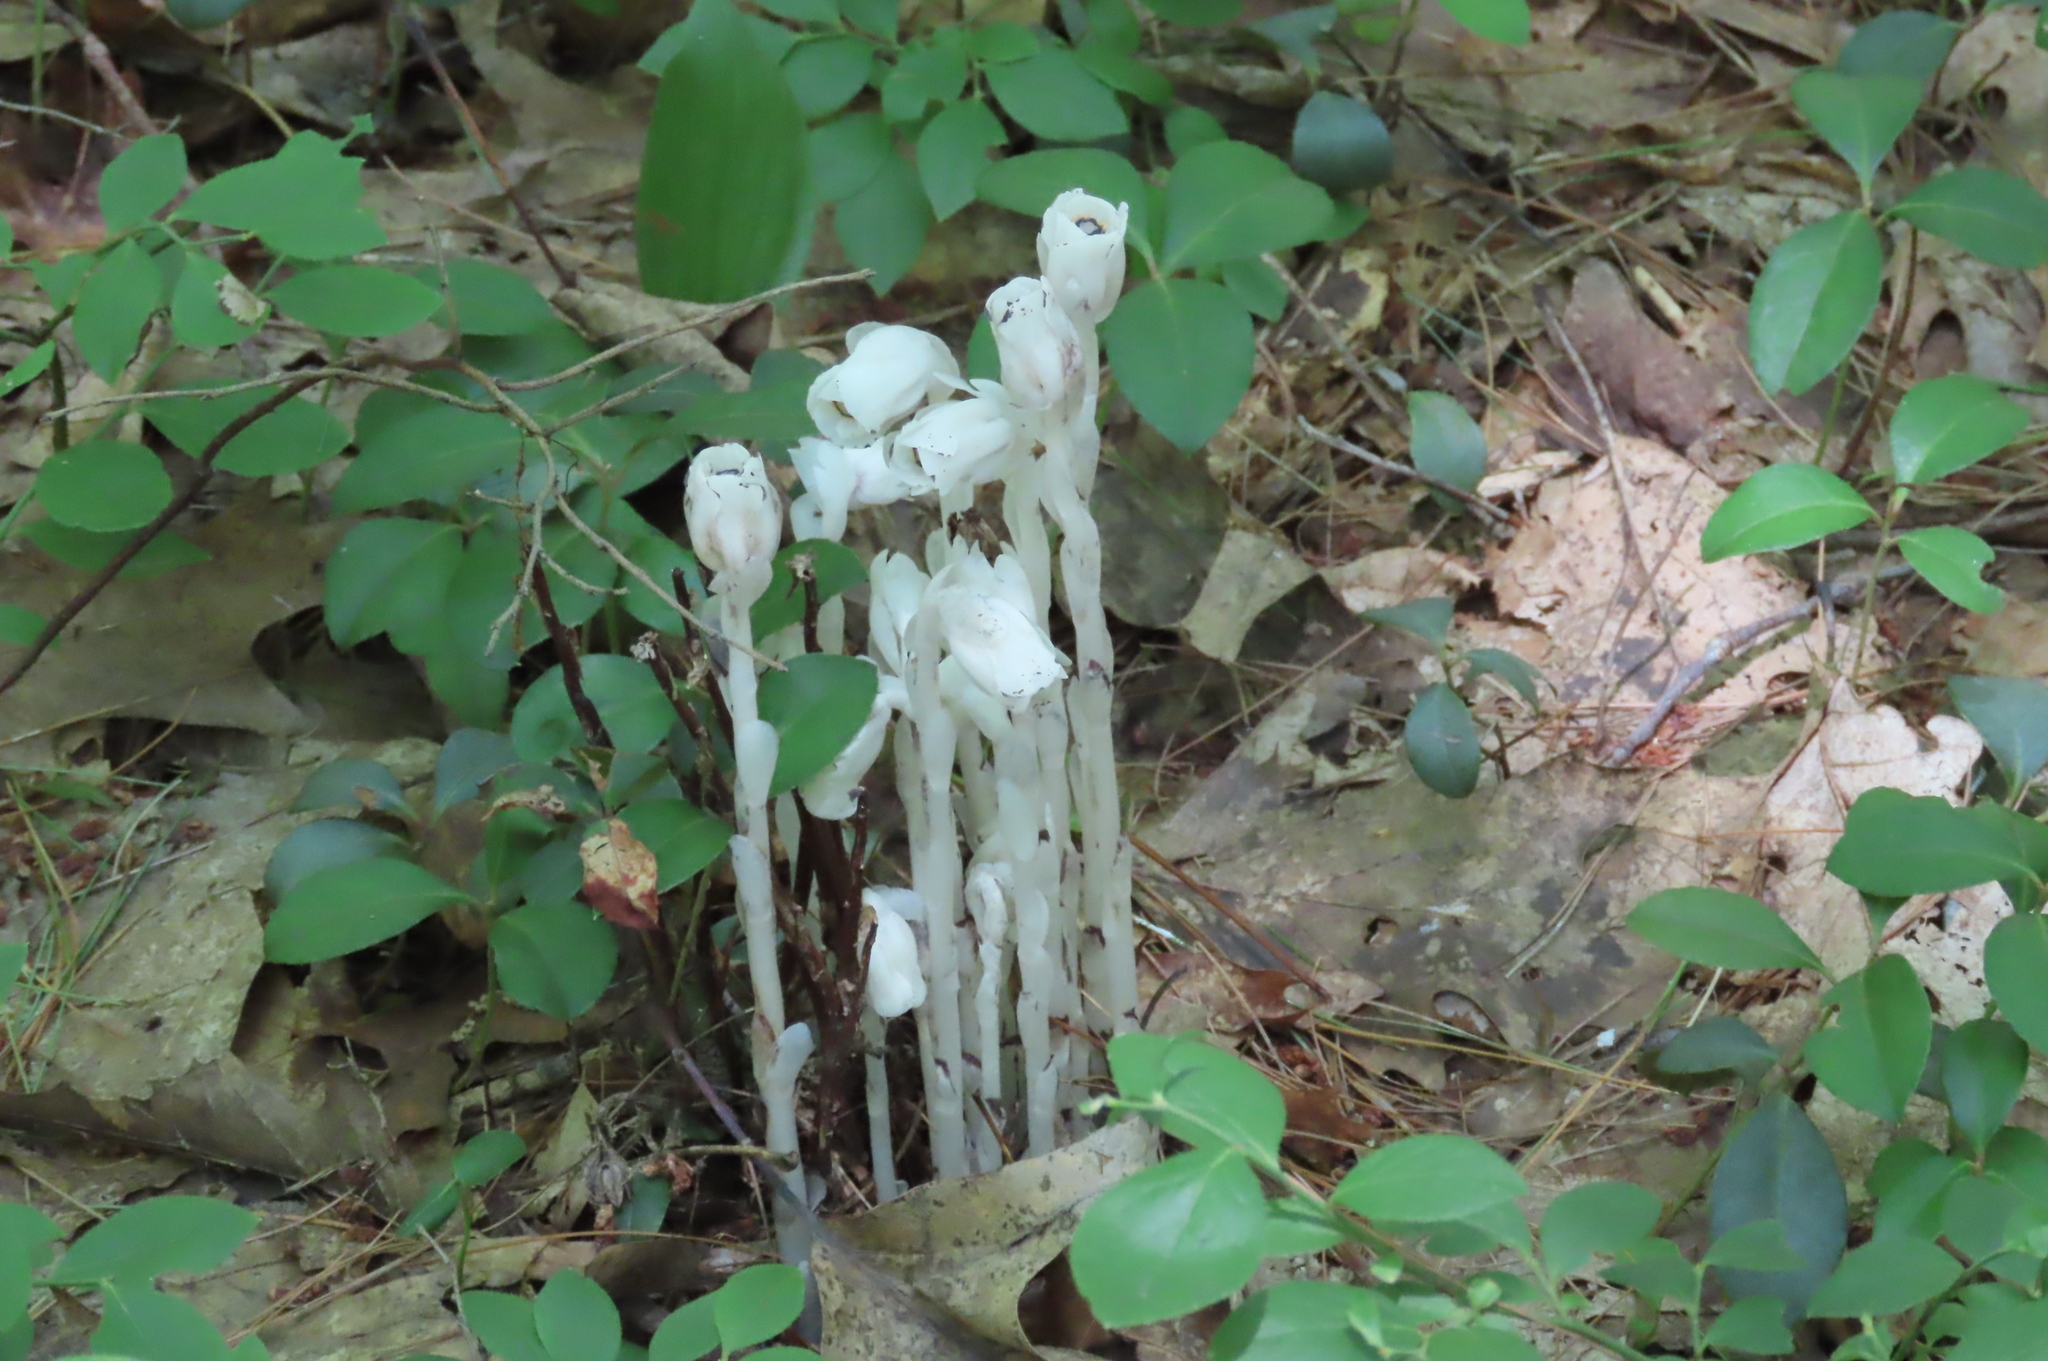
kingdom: Plantae
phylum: Tracheophyta
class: Magnoliopsida
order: Ericales
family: Ericaceae
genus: Monotropa
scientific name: Monotropa uniflora
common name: Convulsion root
